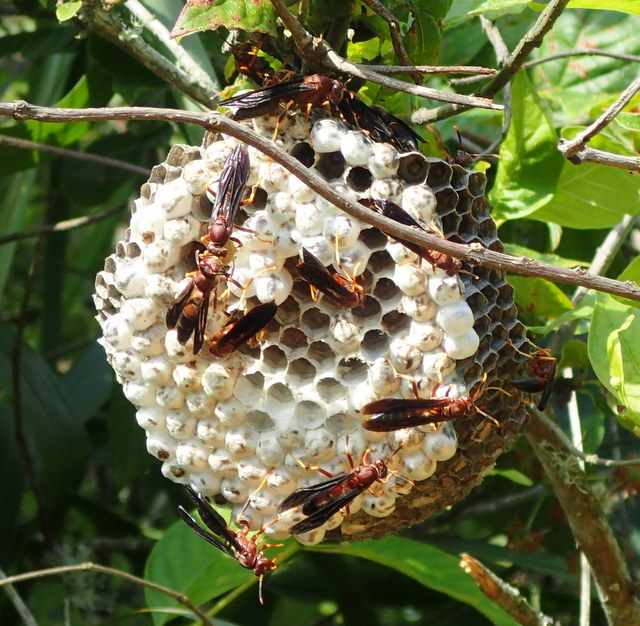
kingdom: Animalia
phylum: Arthropoda
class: Insecta
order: Hymenoptera
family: Eumenidae
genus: Polistes
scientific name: Polistes annularis
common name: Ringed paper wasp
